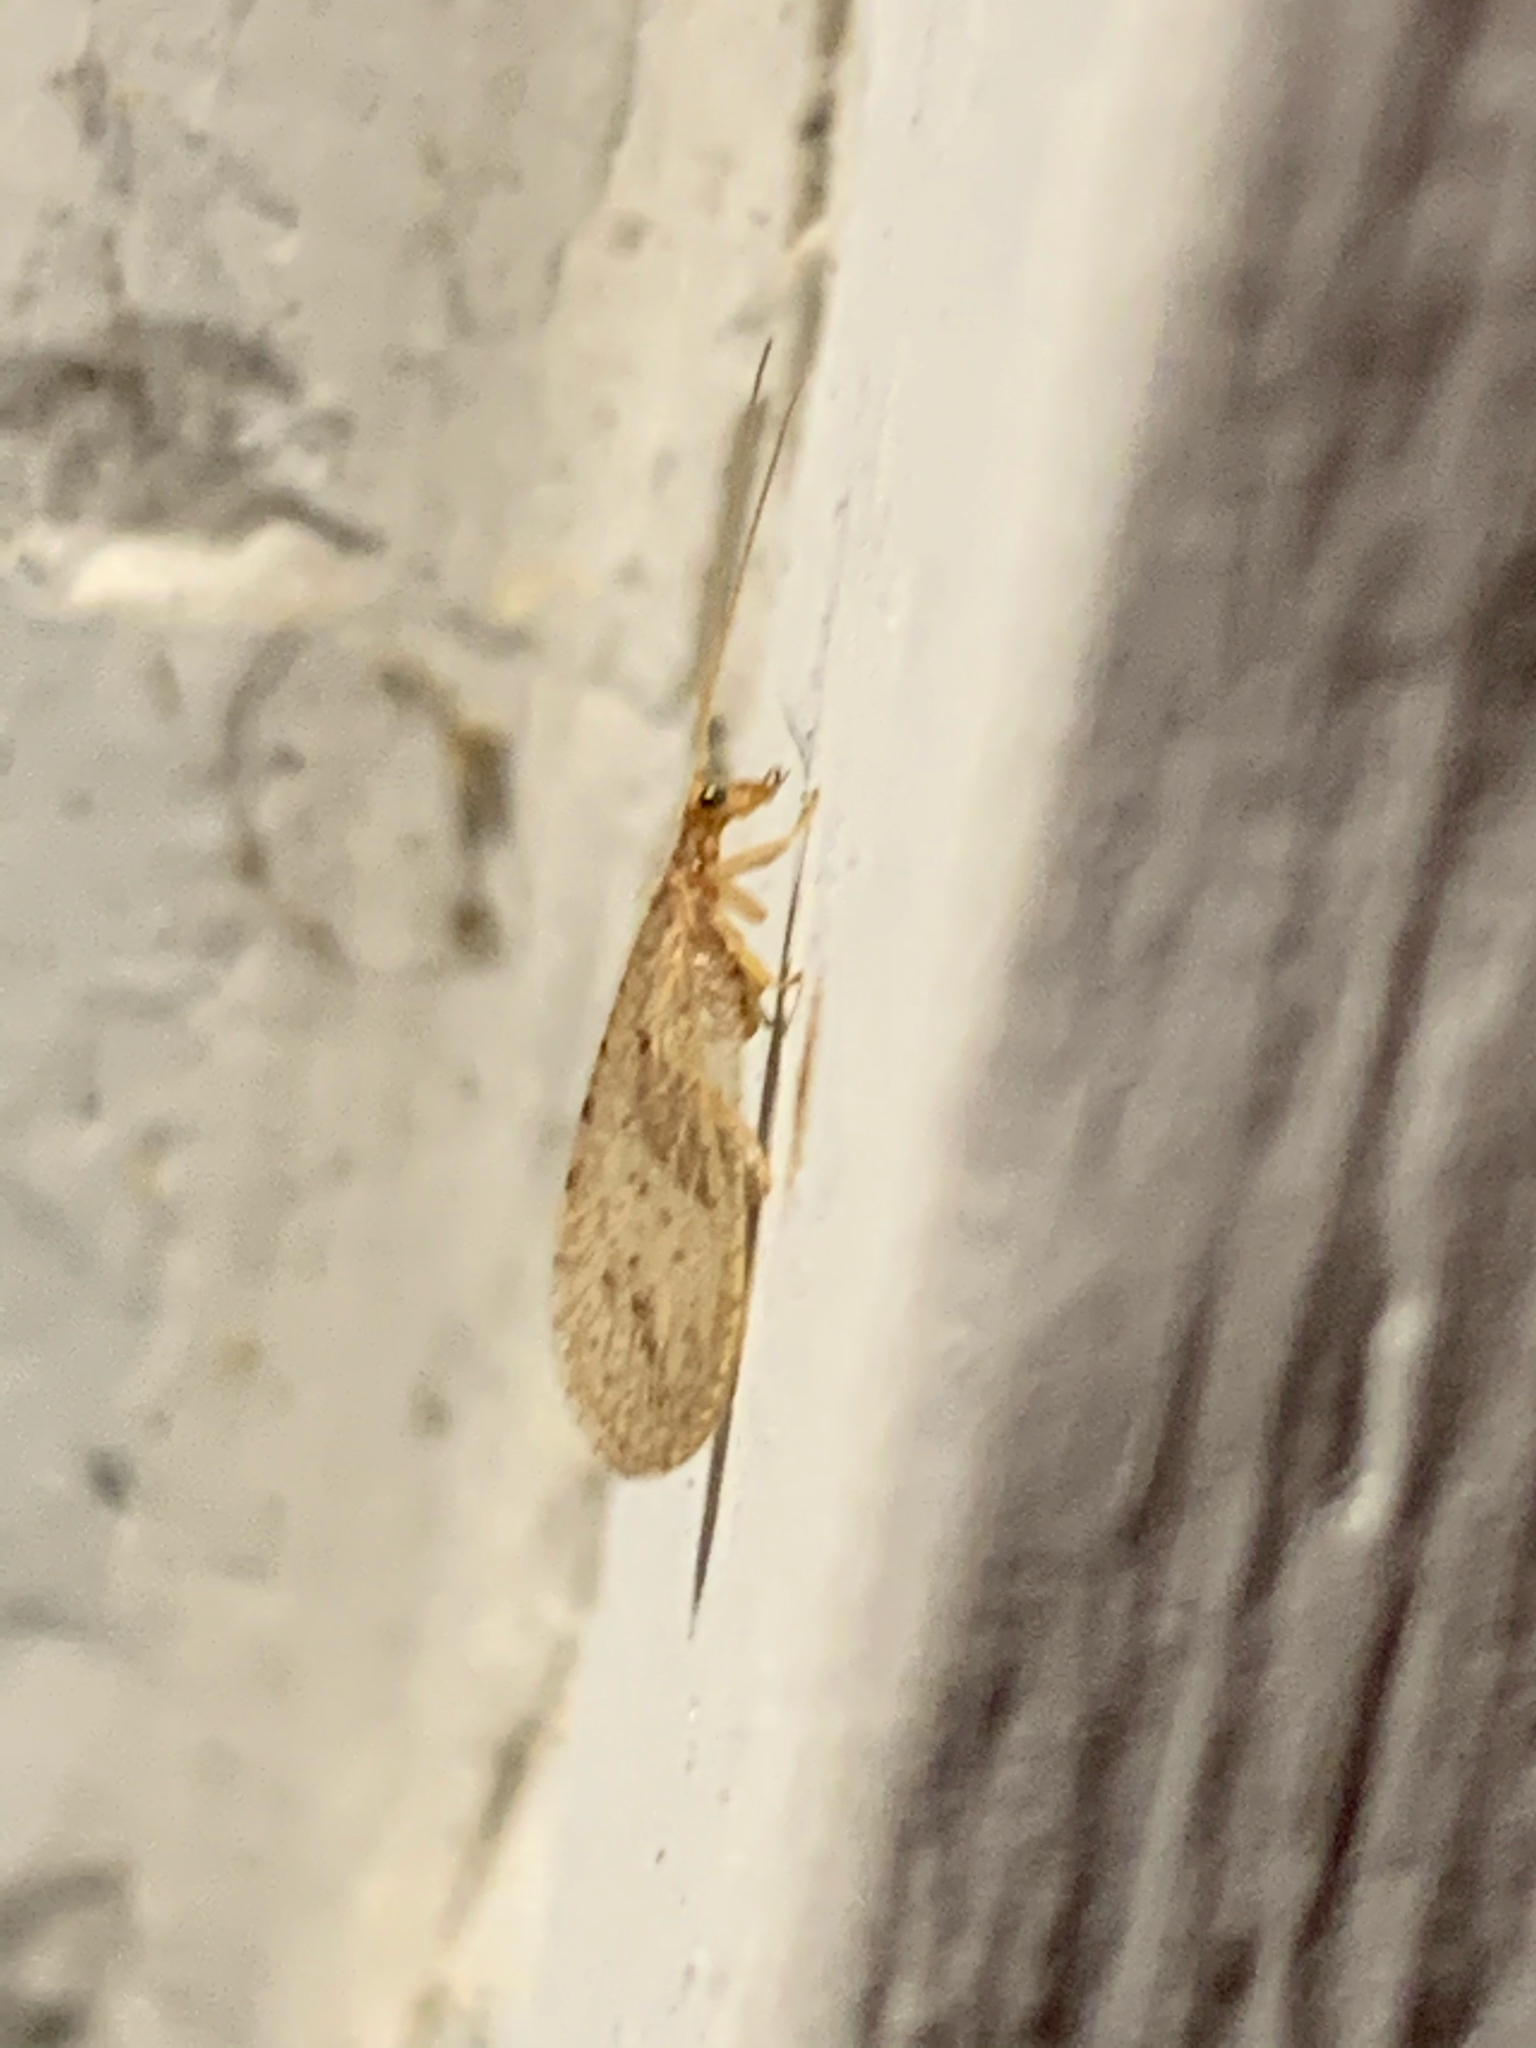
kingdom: Animalia
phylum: Arthropoda
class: Insecta
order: Neuroptera
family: Hemerobiidae
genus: Micromus
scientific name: Micromus
